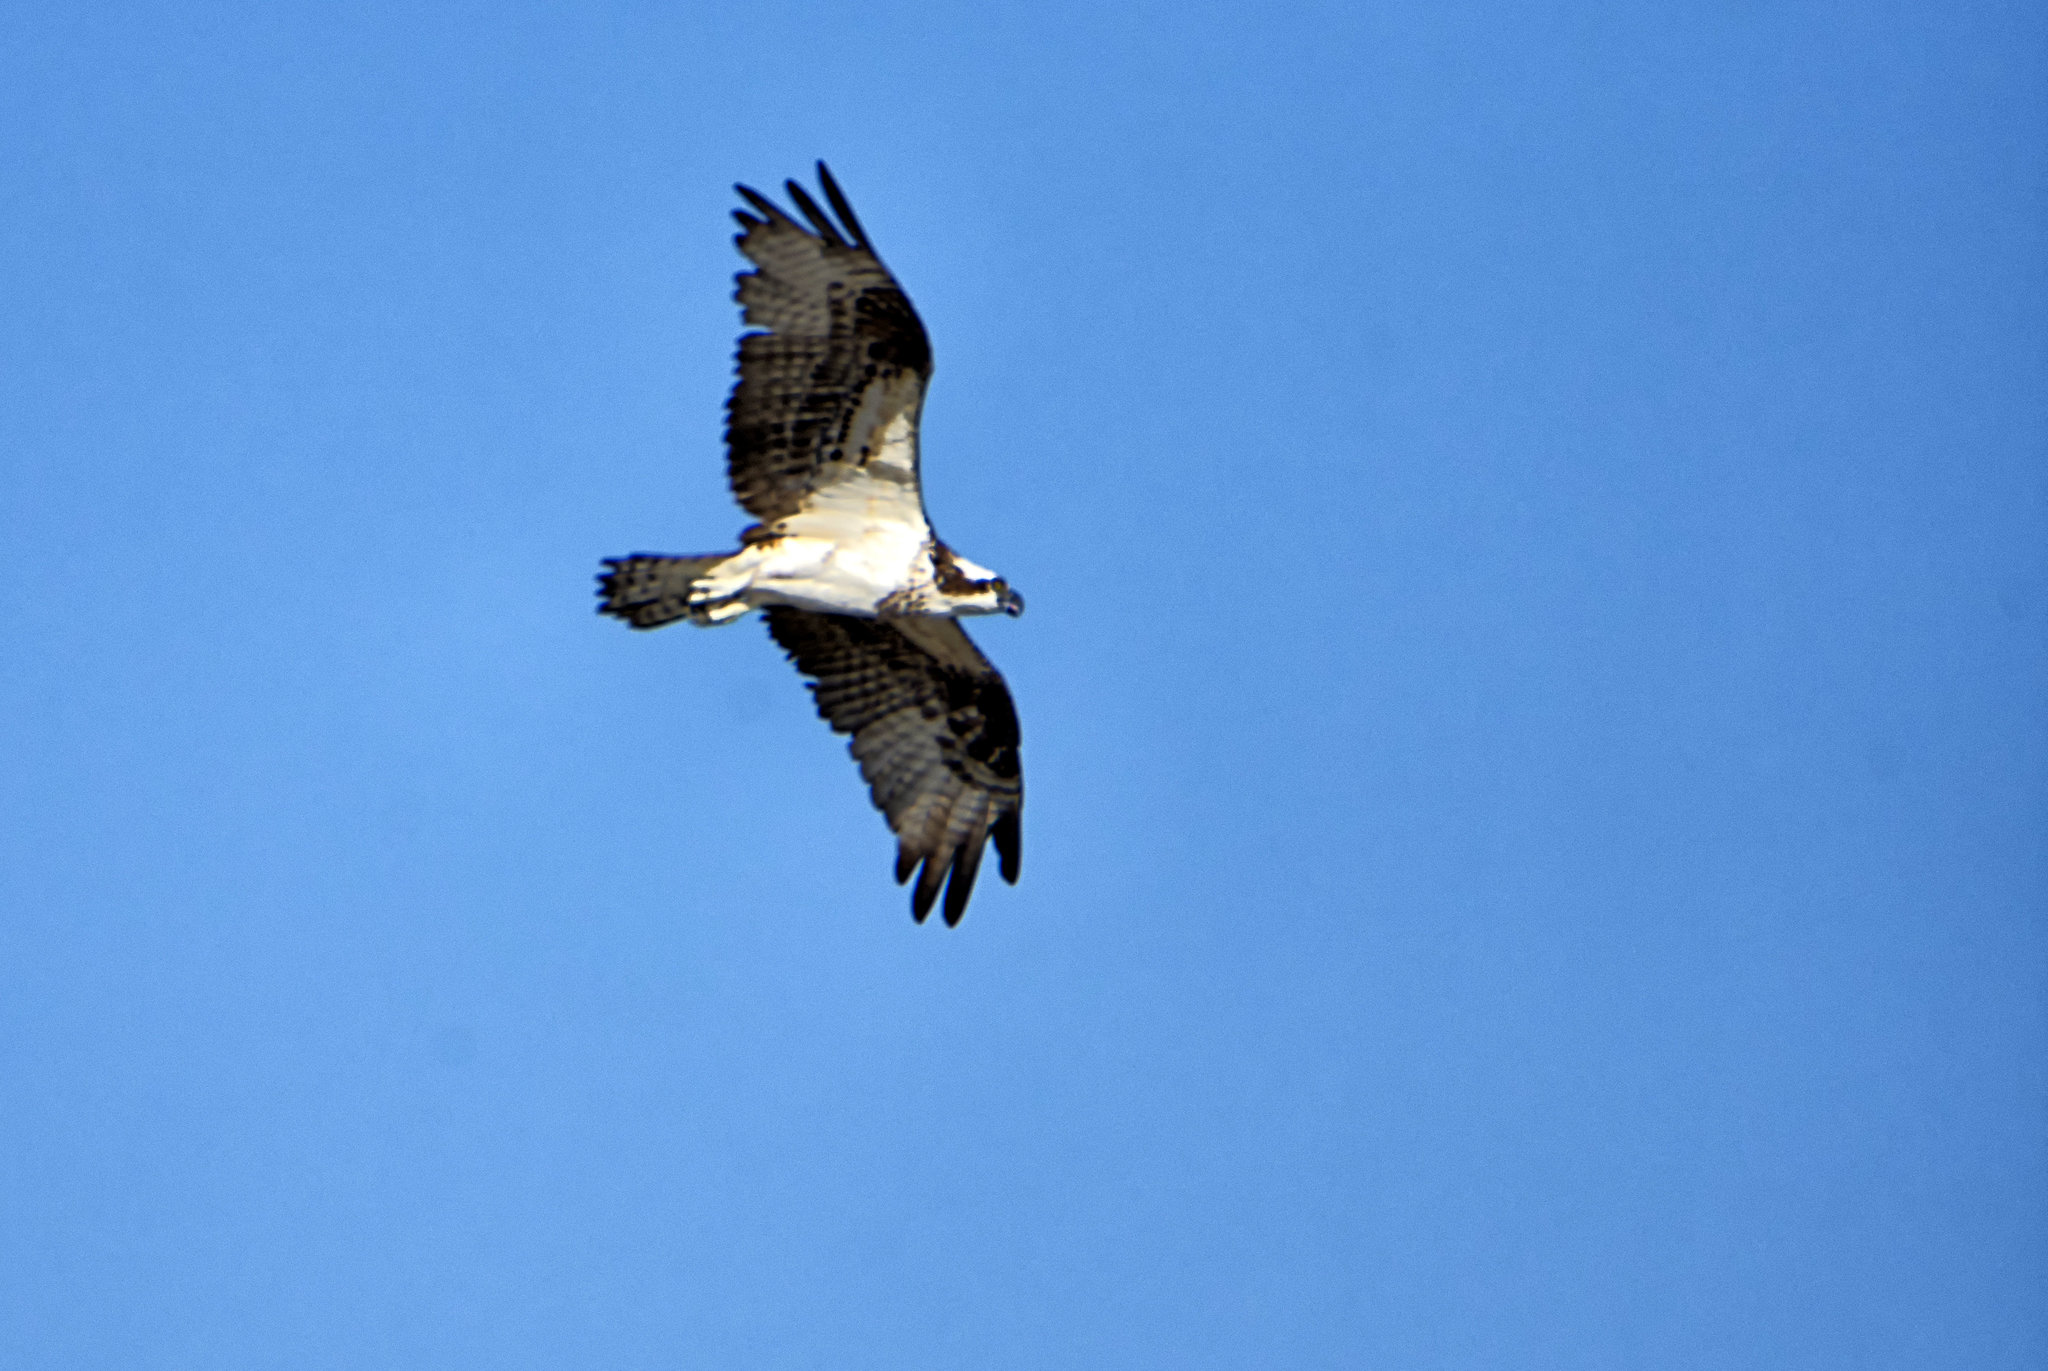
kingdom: Animalia
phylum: Chordata
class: Aves
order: Accipitriformes
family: Pandionidae
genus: Pandion
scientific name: Pandion haliaetus
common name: Osprey
